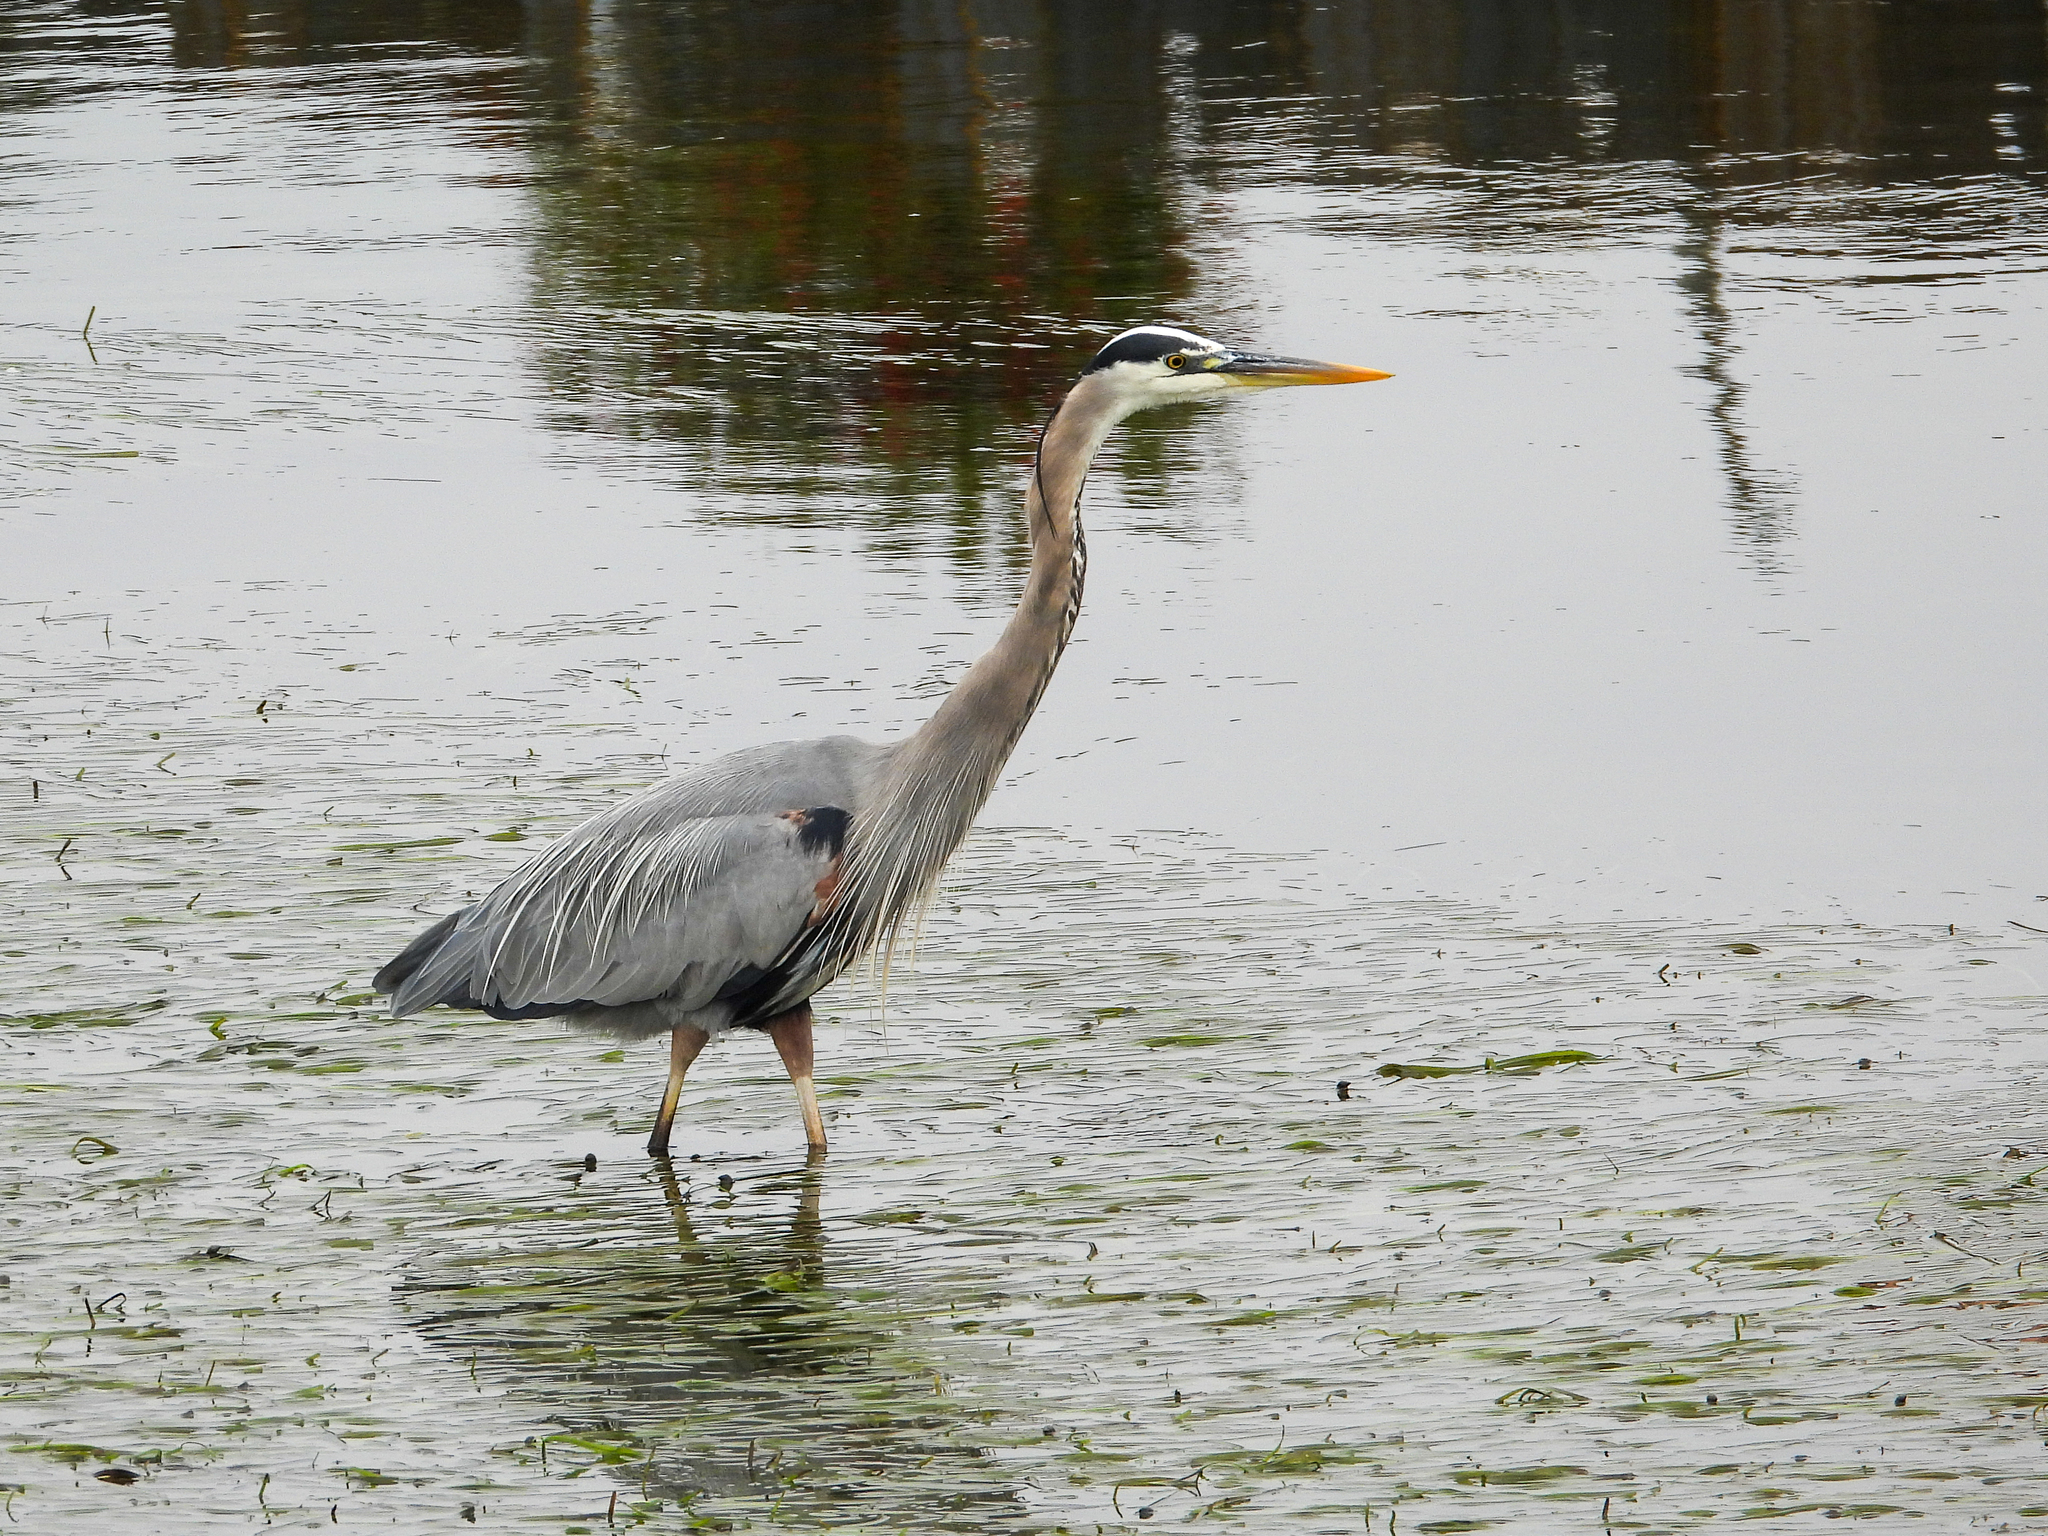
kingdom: Animalia
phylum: Chordata
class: Aves
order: Pelecaniformes
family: Ardeidae
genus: Ardea
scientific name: Ardea herodias
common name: Great blue heron
